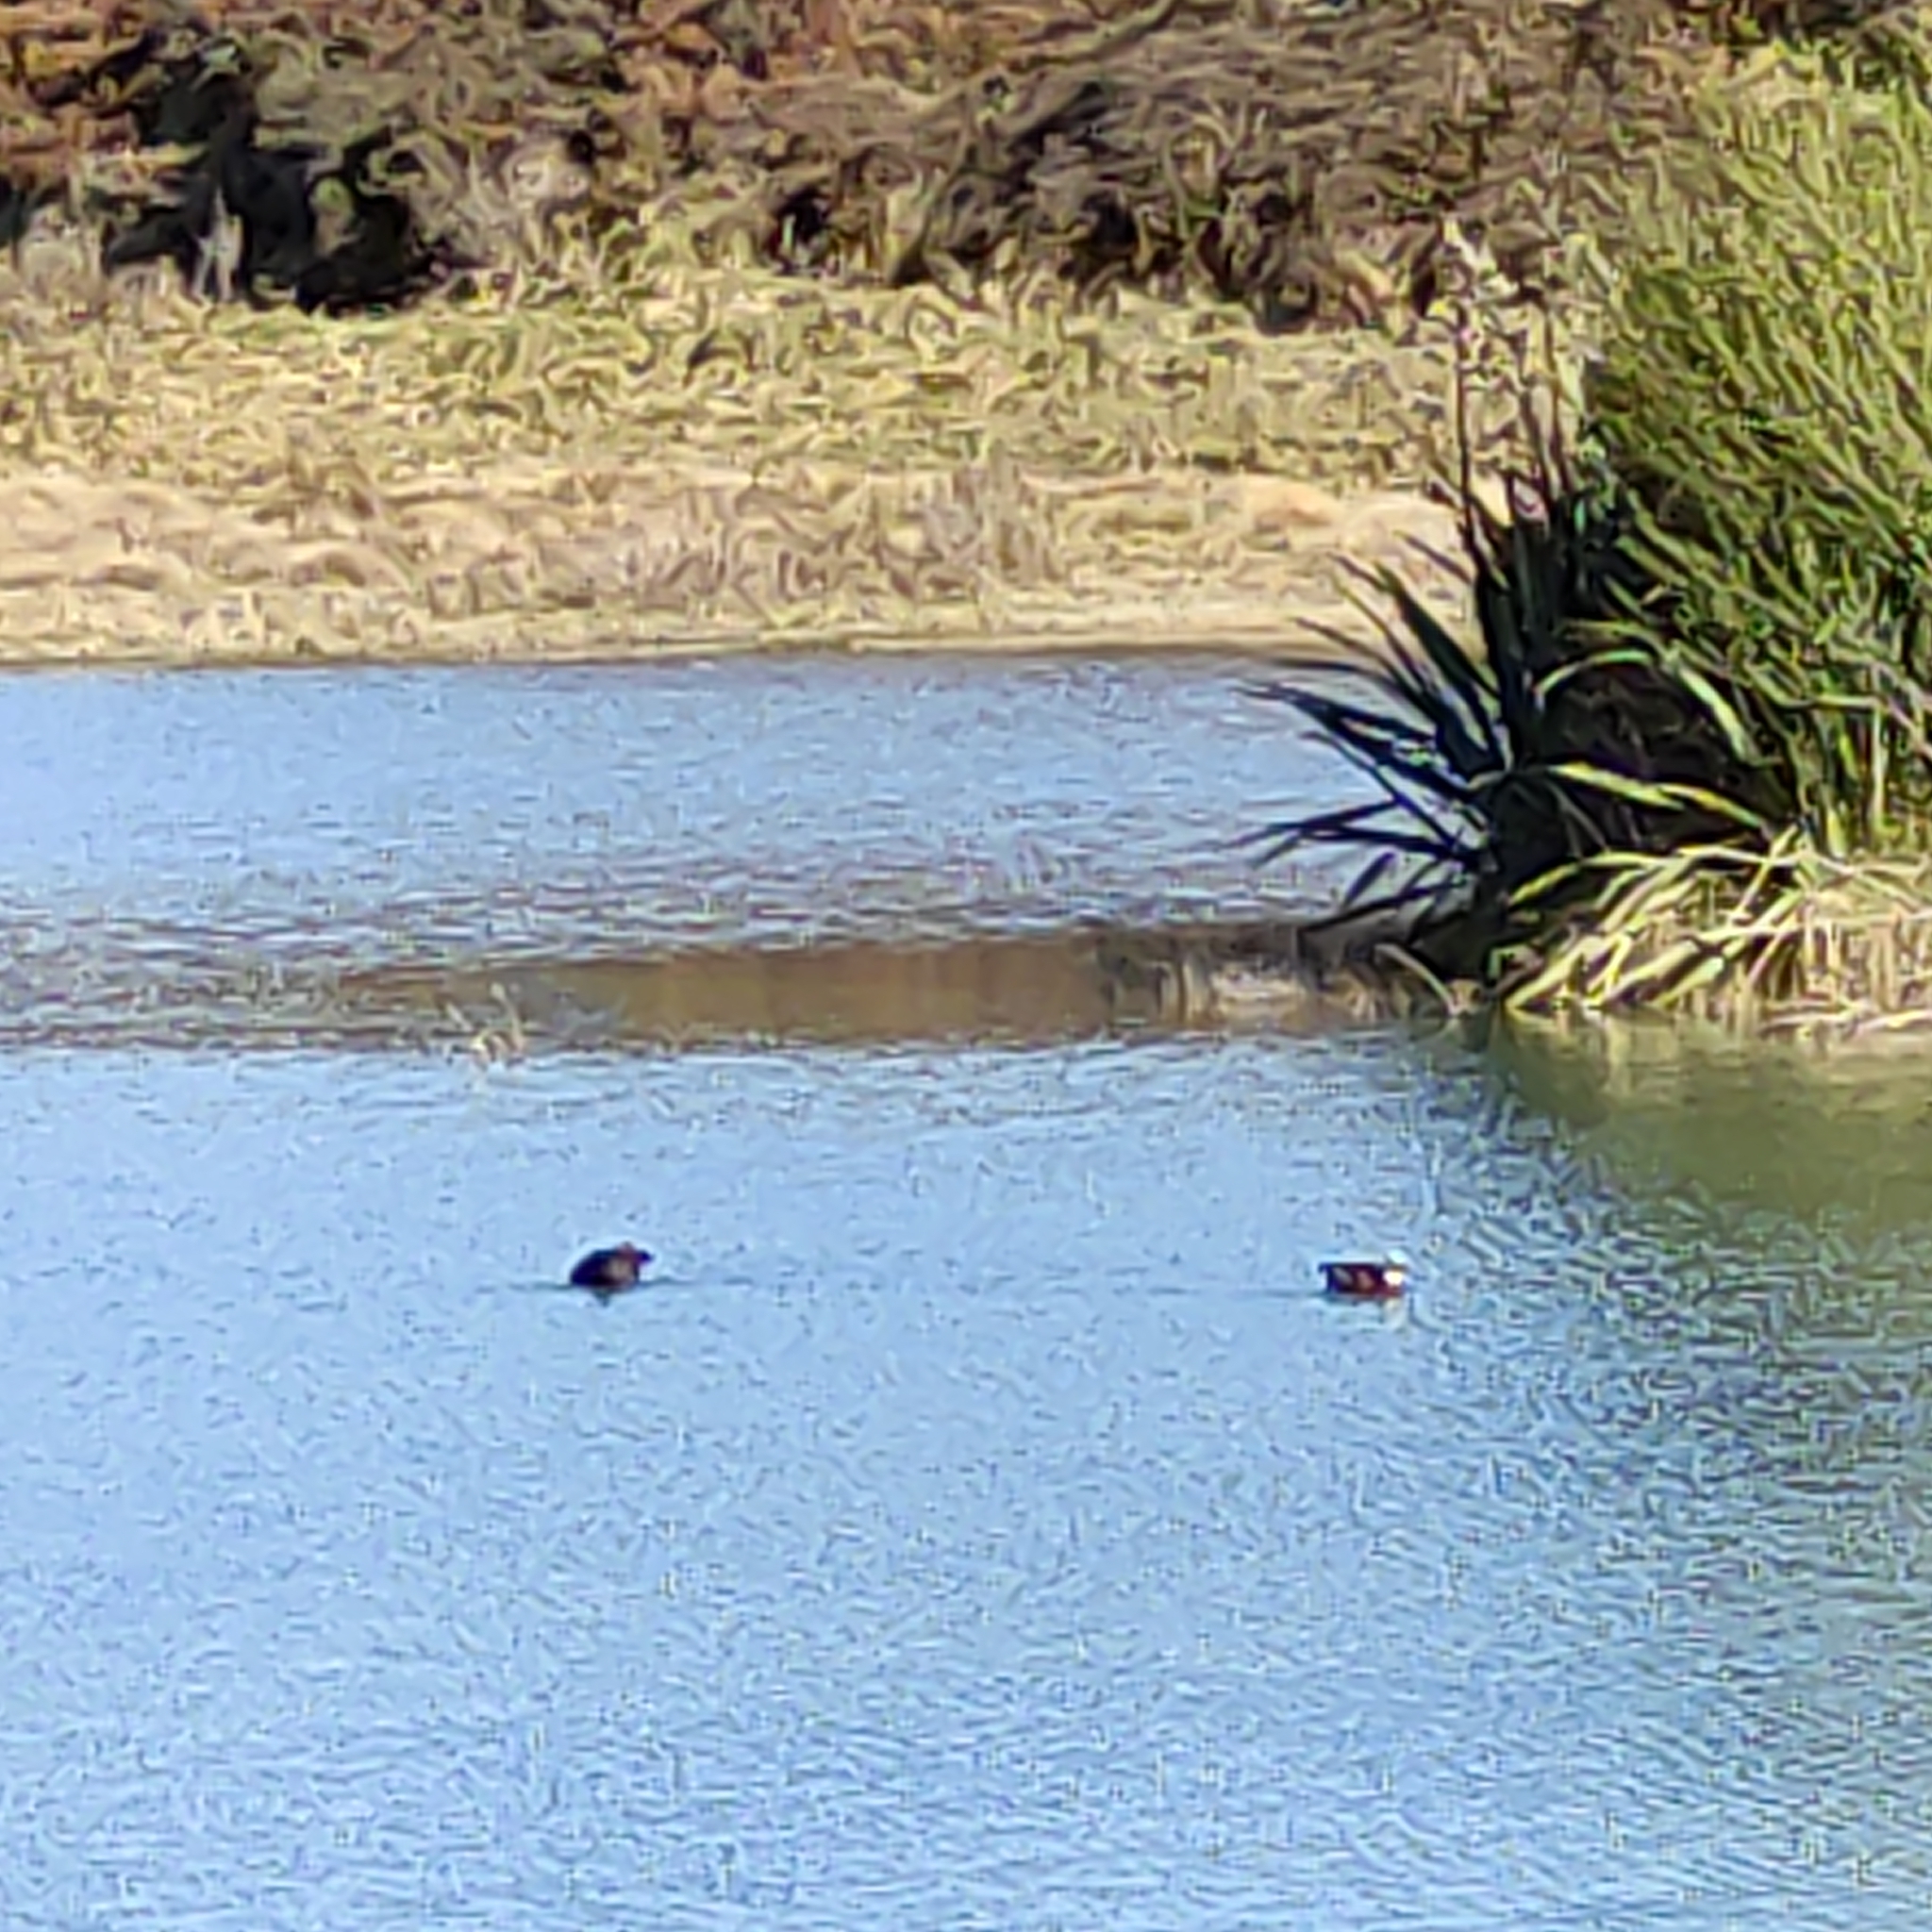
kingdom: Animalia
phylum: Chordata
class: Aves
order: Anseriformes
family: Anatidae
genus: Tadorna
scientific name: Tadorna variegata
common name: Paradise shelduck
